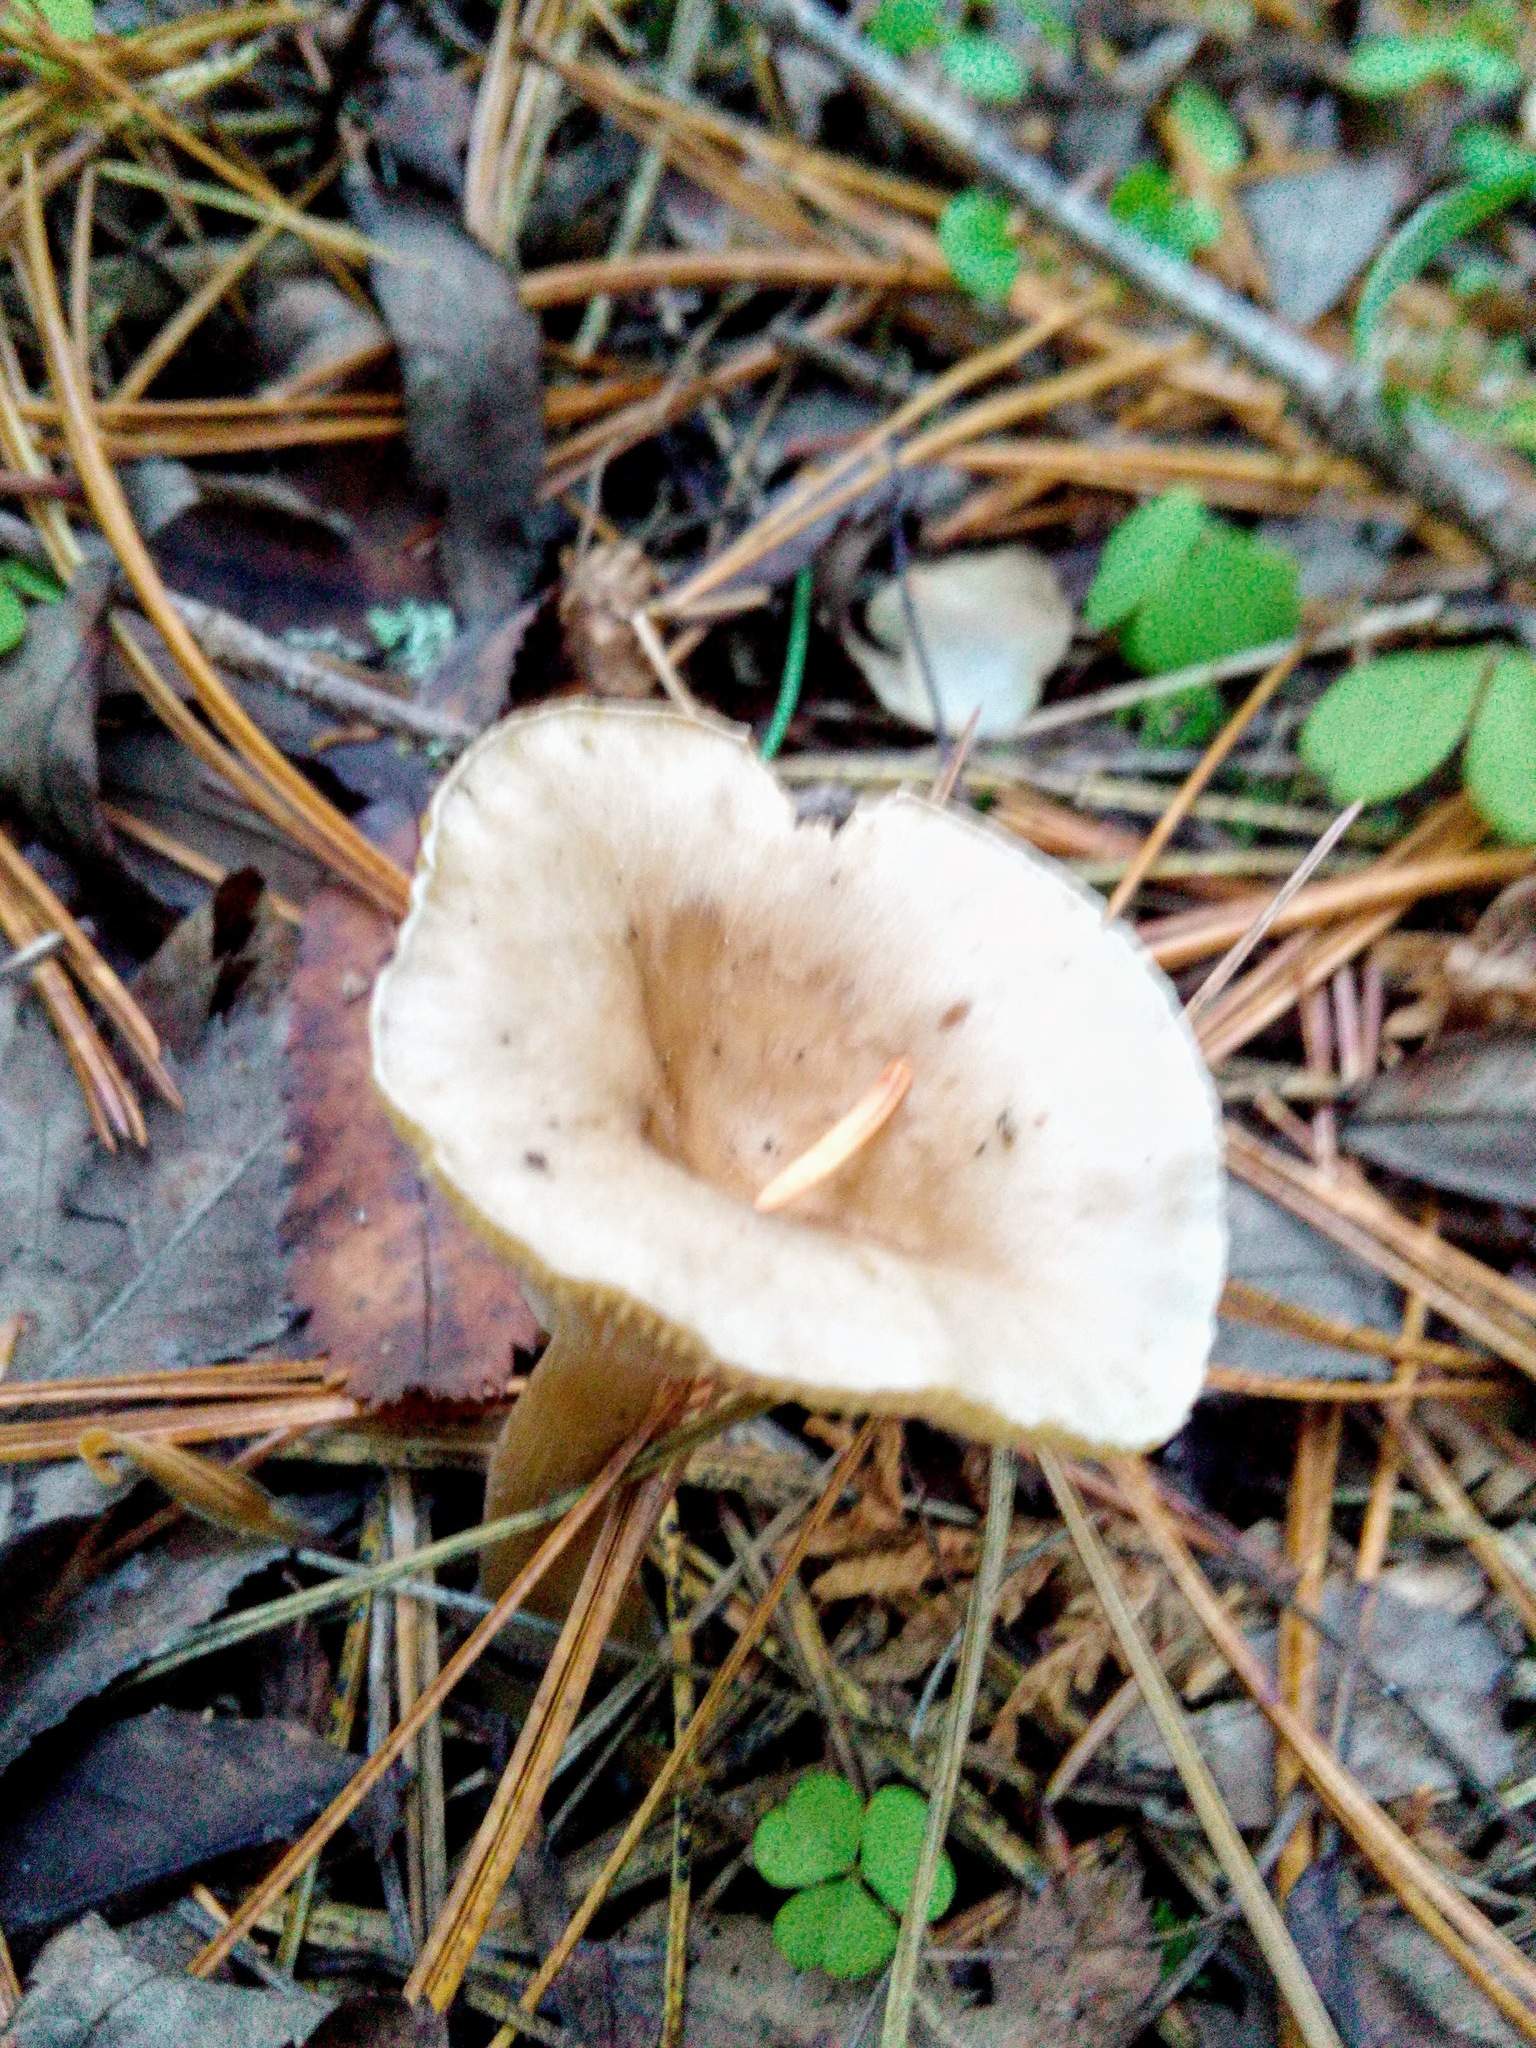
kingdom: Fungi
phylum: Basidiomycota
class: Agaricomycetes
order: Agaricales
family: Hygrophoraceae
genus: Ampulloclitocybe
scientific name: Ampulloclitocybe clavipes
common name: Club foot
